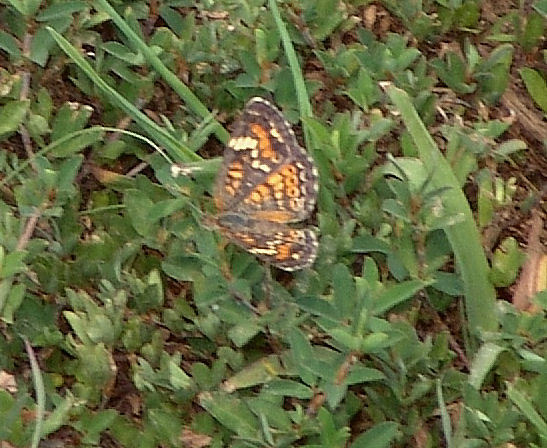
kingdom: Animalia
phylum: Arthropoda
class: Insecta
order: Lepidoptera
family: Nymphalidae
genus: Phyciodes
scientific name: Phyciodes phaon
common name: Phaon crescent
